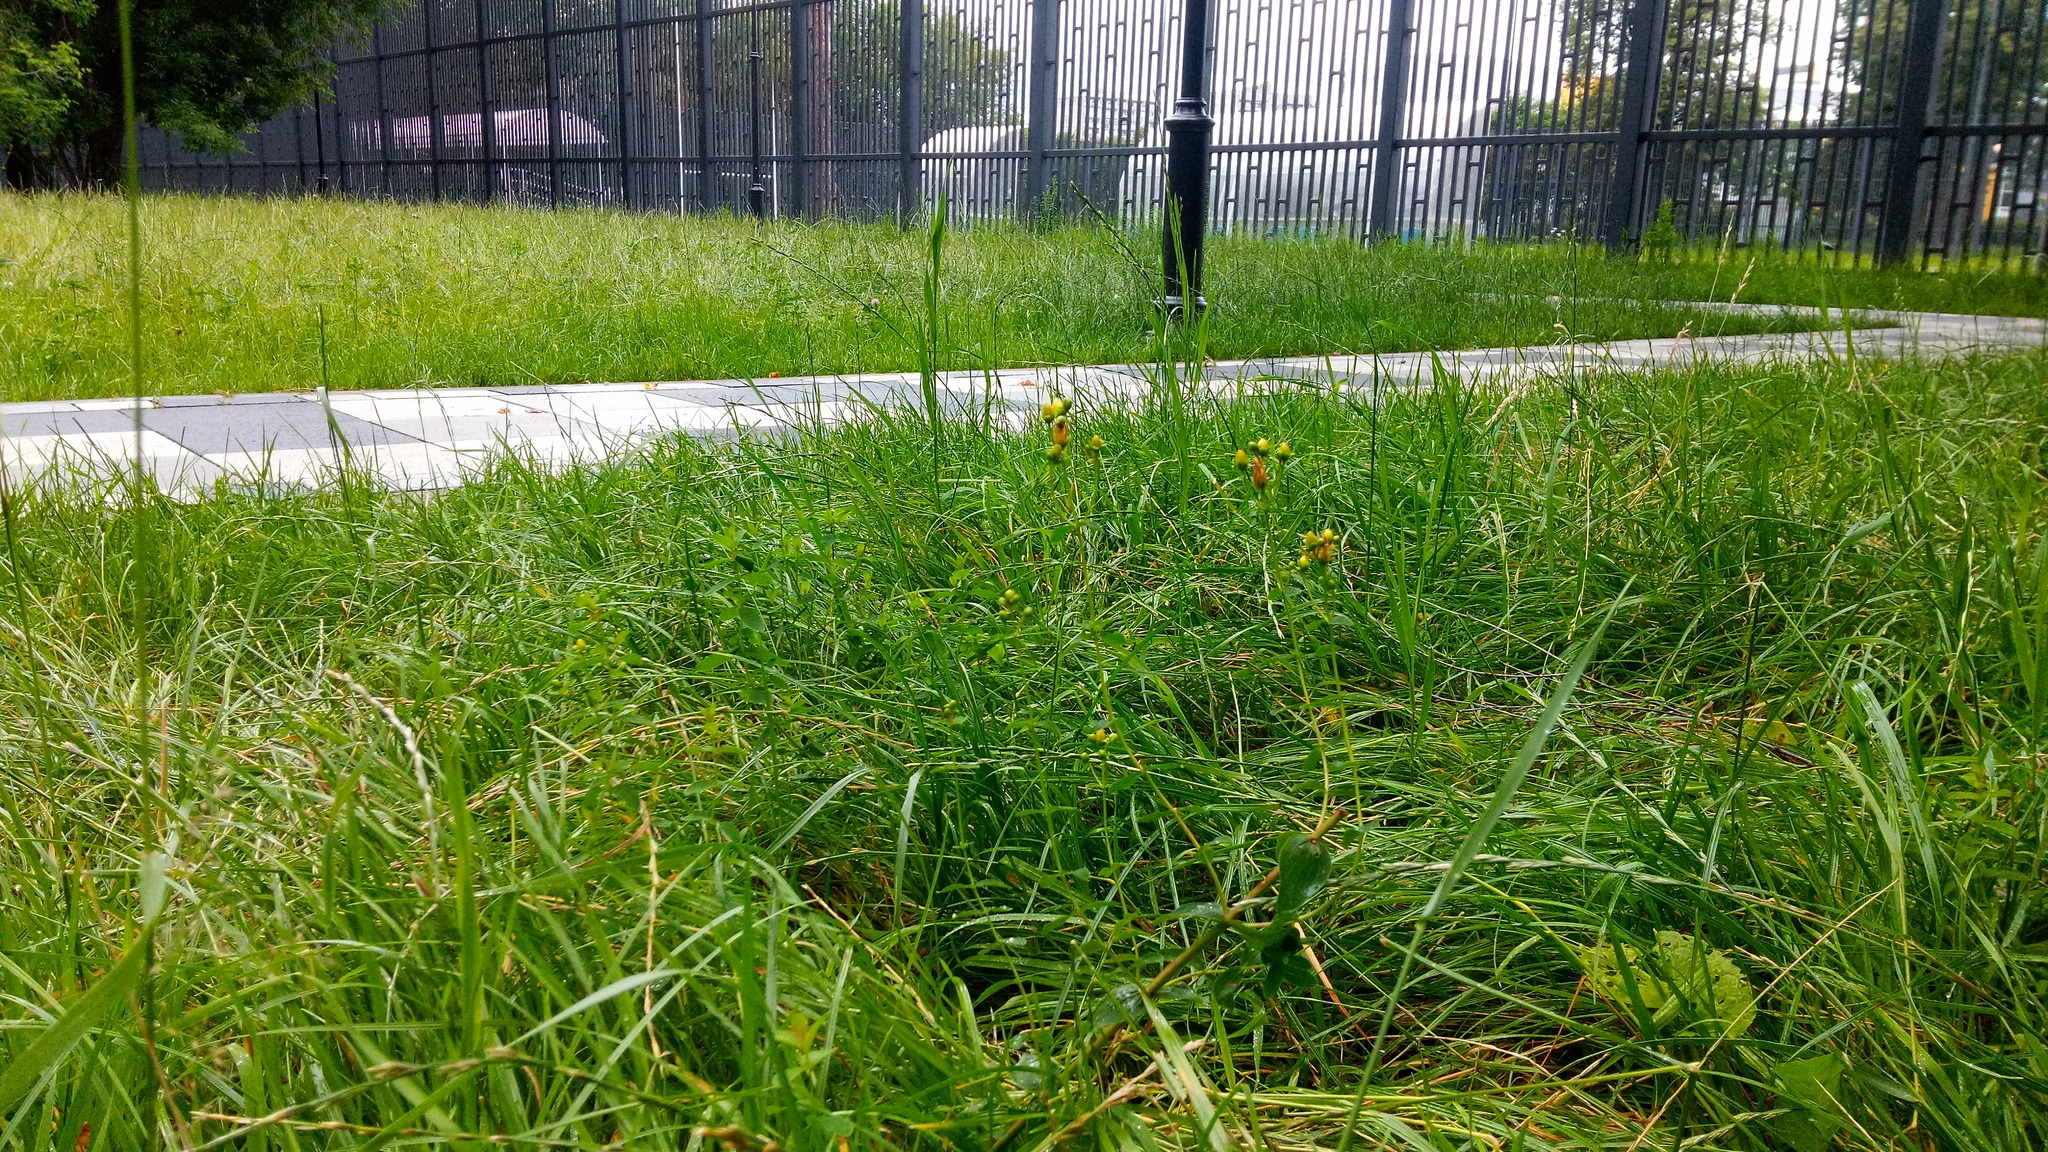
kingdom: Plantae
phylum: Tracheophyta
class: Magnoliopsida
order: Malpighiales
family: Hypericaceae
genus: Hypericum
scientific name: Hypericum maculatum
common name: Imperforate st. john's-wort
